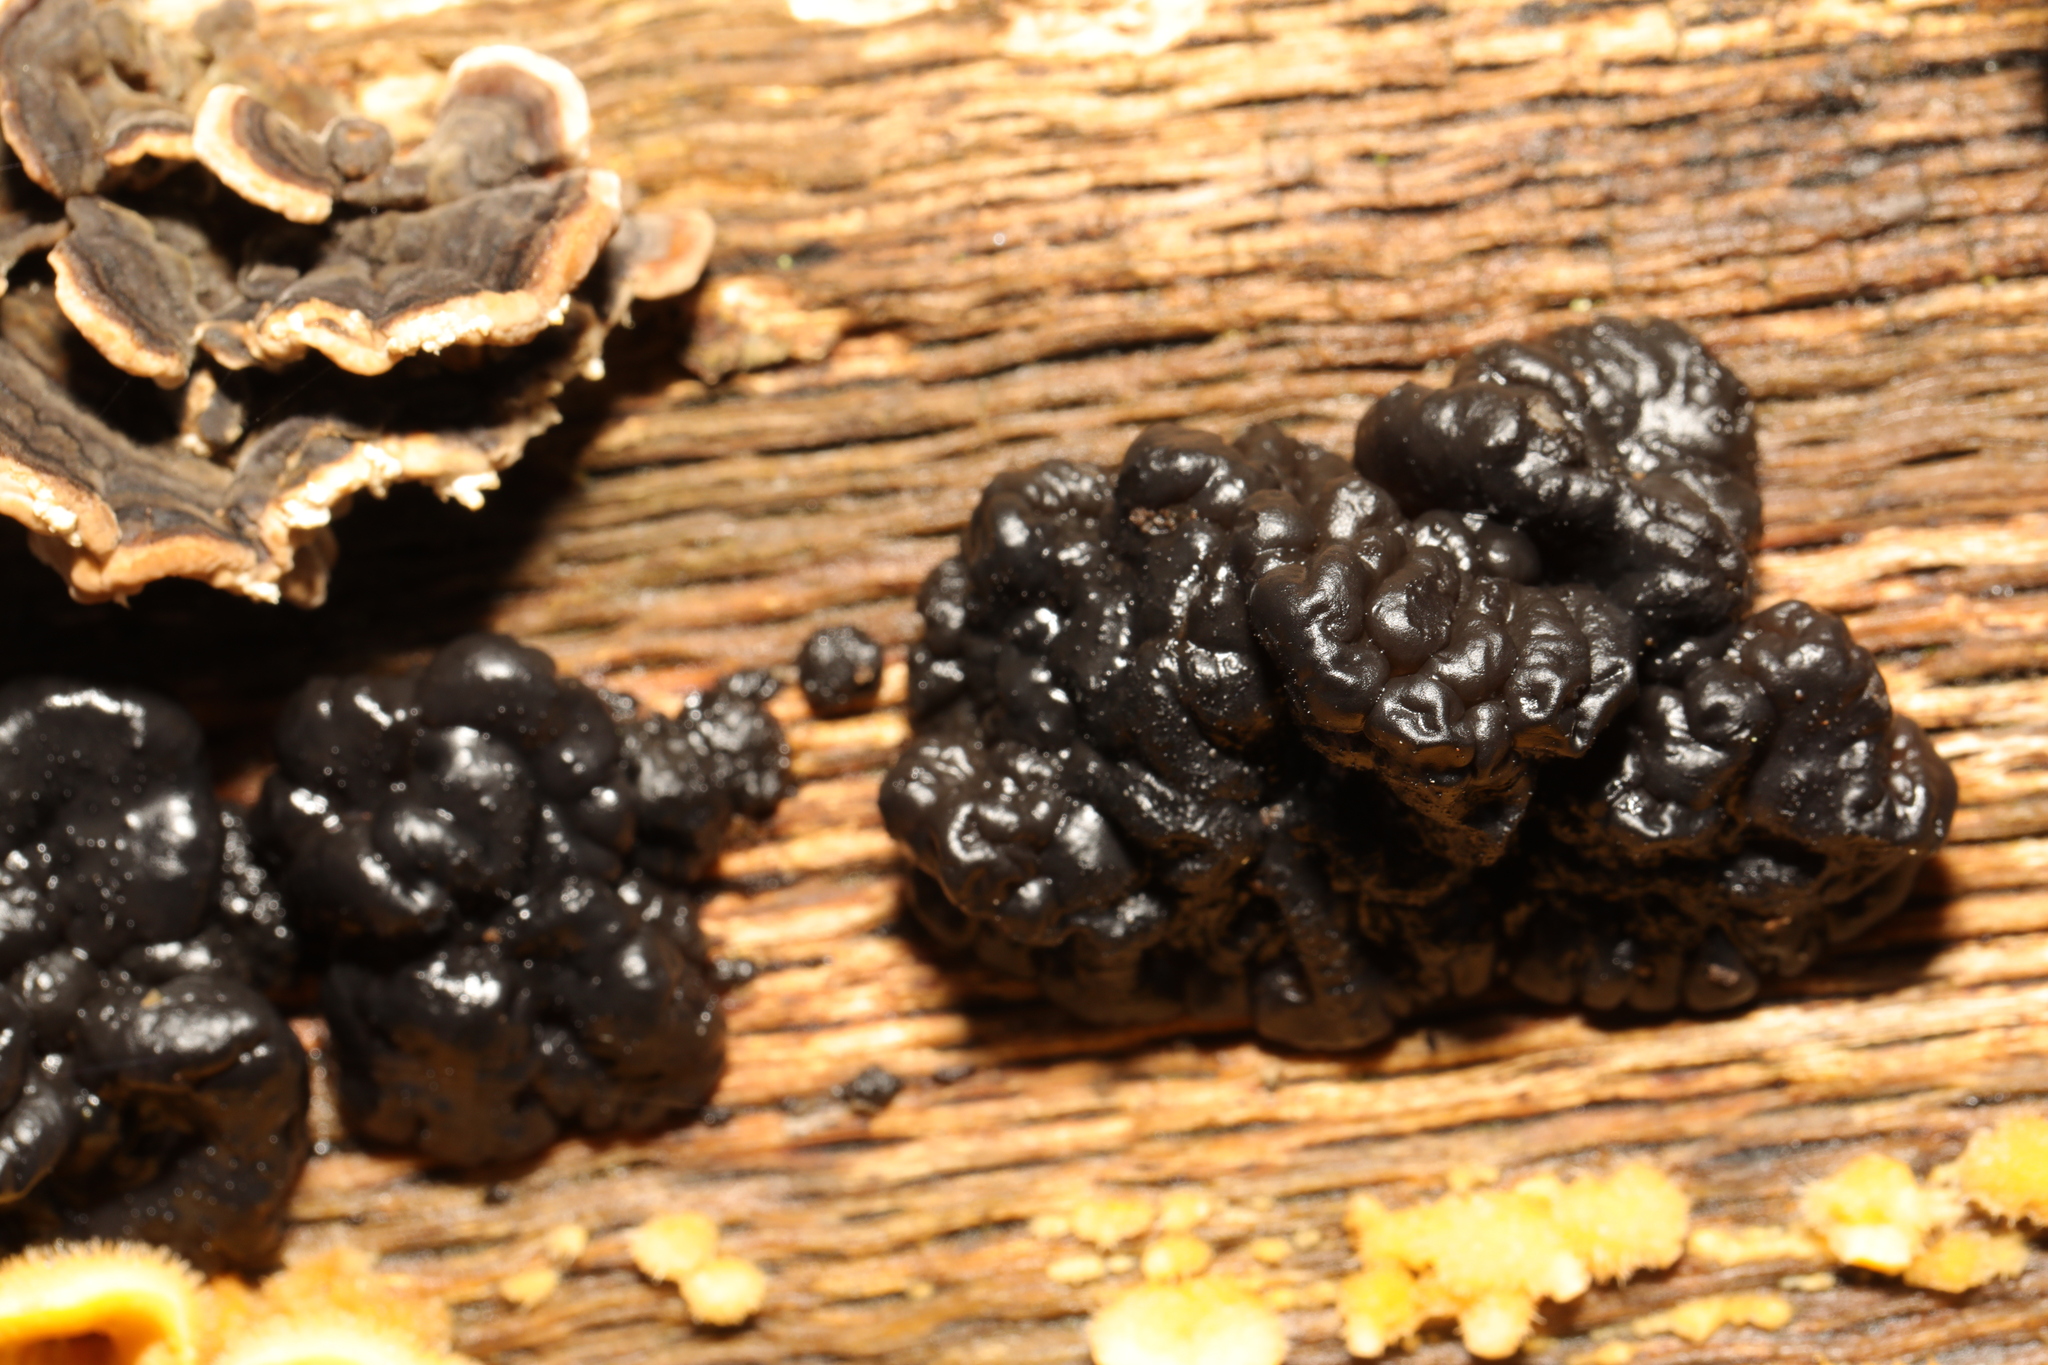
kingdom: Fungi
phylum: Basidiomycota
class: Agaricomycetes
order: Auriculariales
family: Auriculariaceae
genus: Exidia
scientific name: Exidia nigricans
